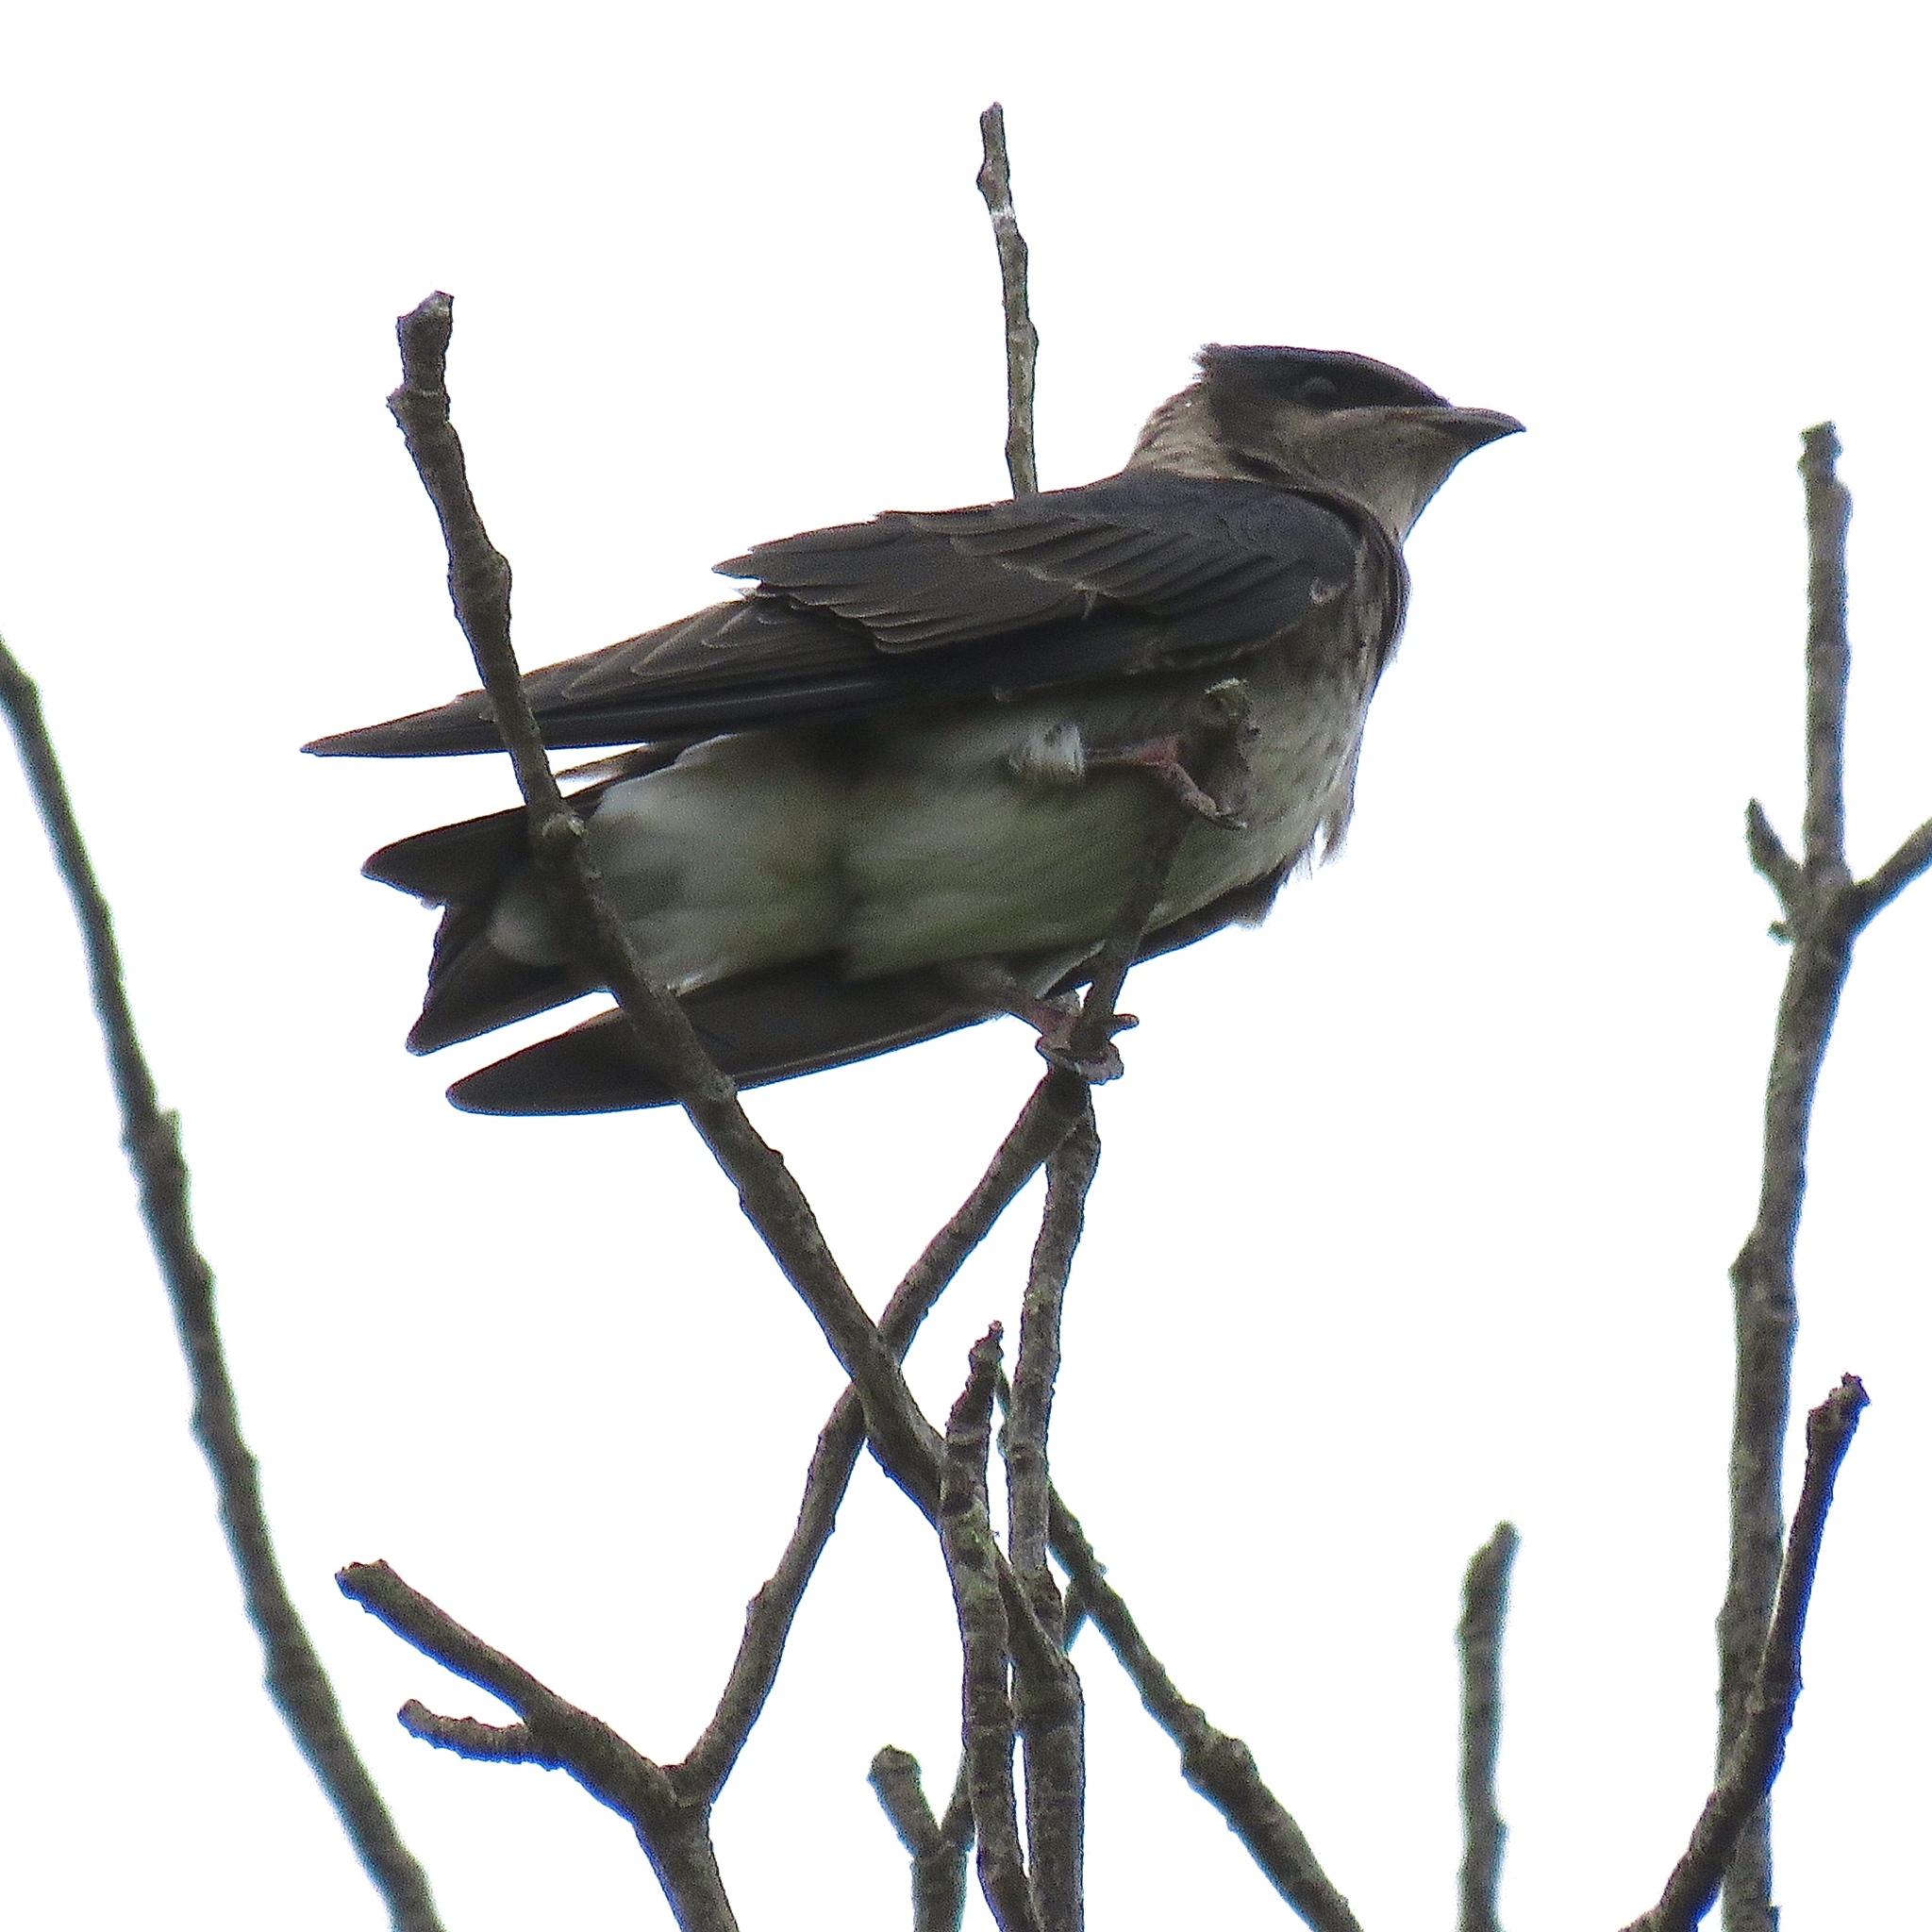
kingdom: Animalia
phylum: Chordata
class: Aves
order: Passeriformes
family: Hirundinidae
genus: Progne
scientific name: Progne subis
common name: Purple martin
